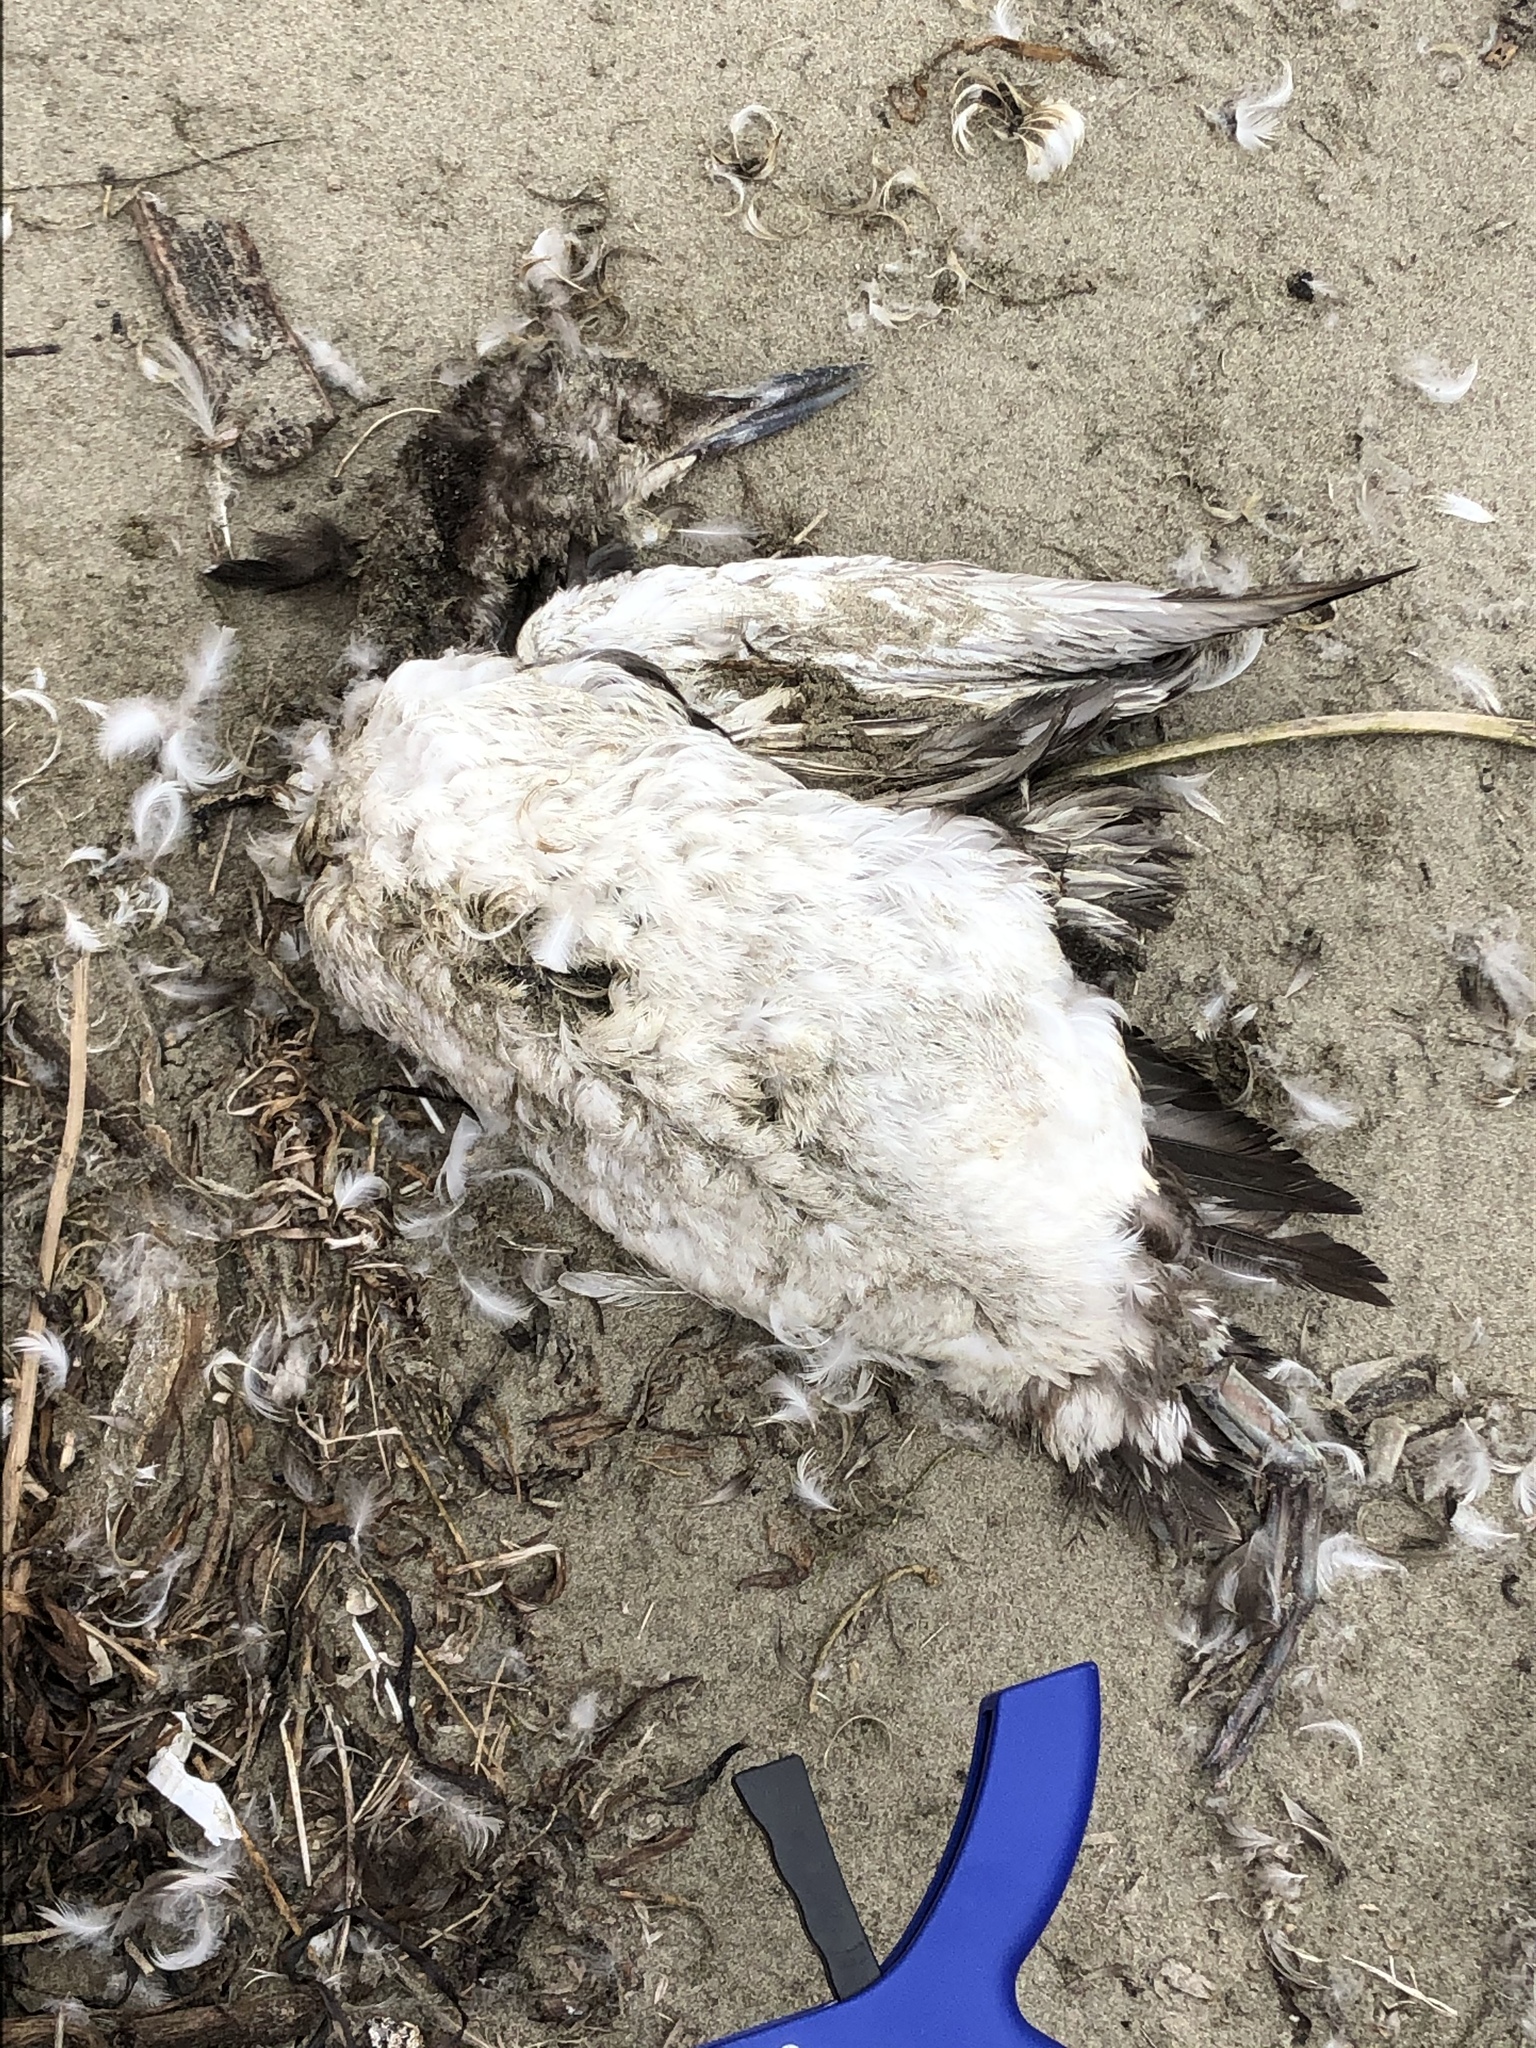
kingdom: Animalia
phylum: Chordata
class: Aves
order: Gaviiformes
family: Gaviidae
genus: Gavia
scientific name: Gavia immer
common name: Common loon
